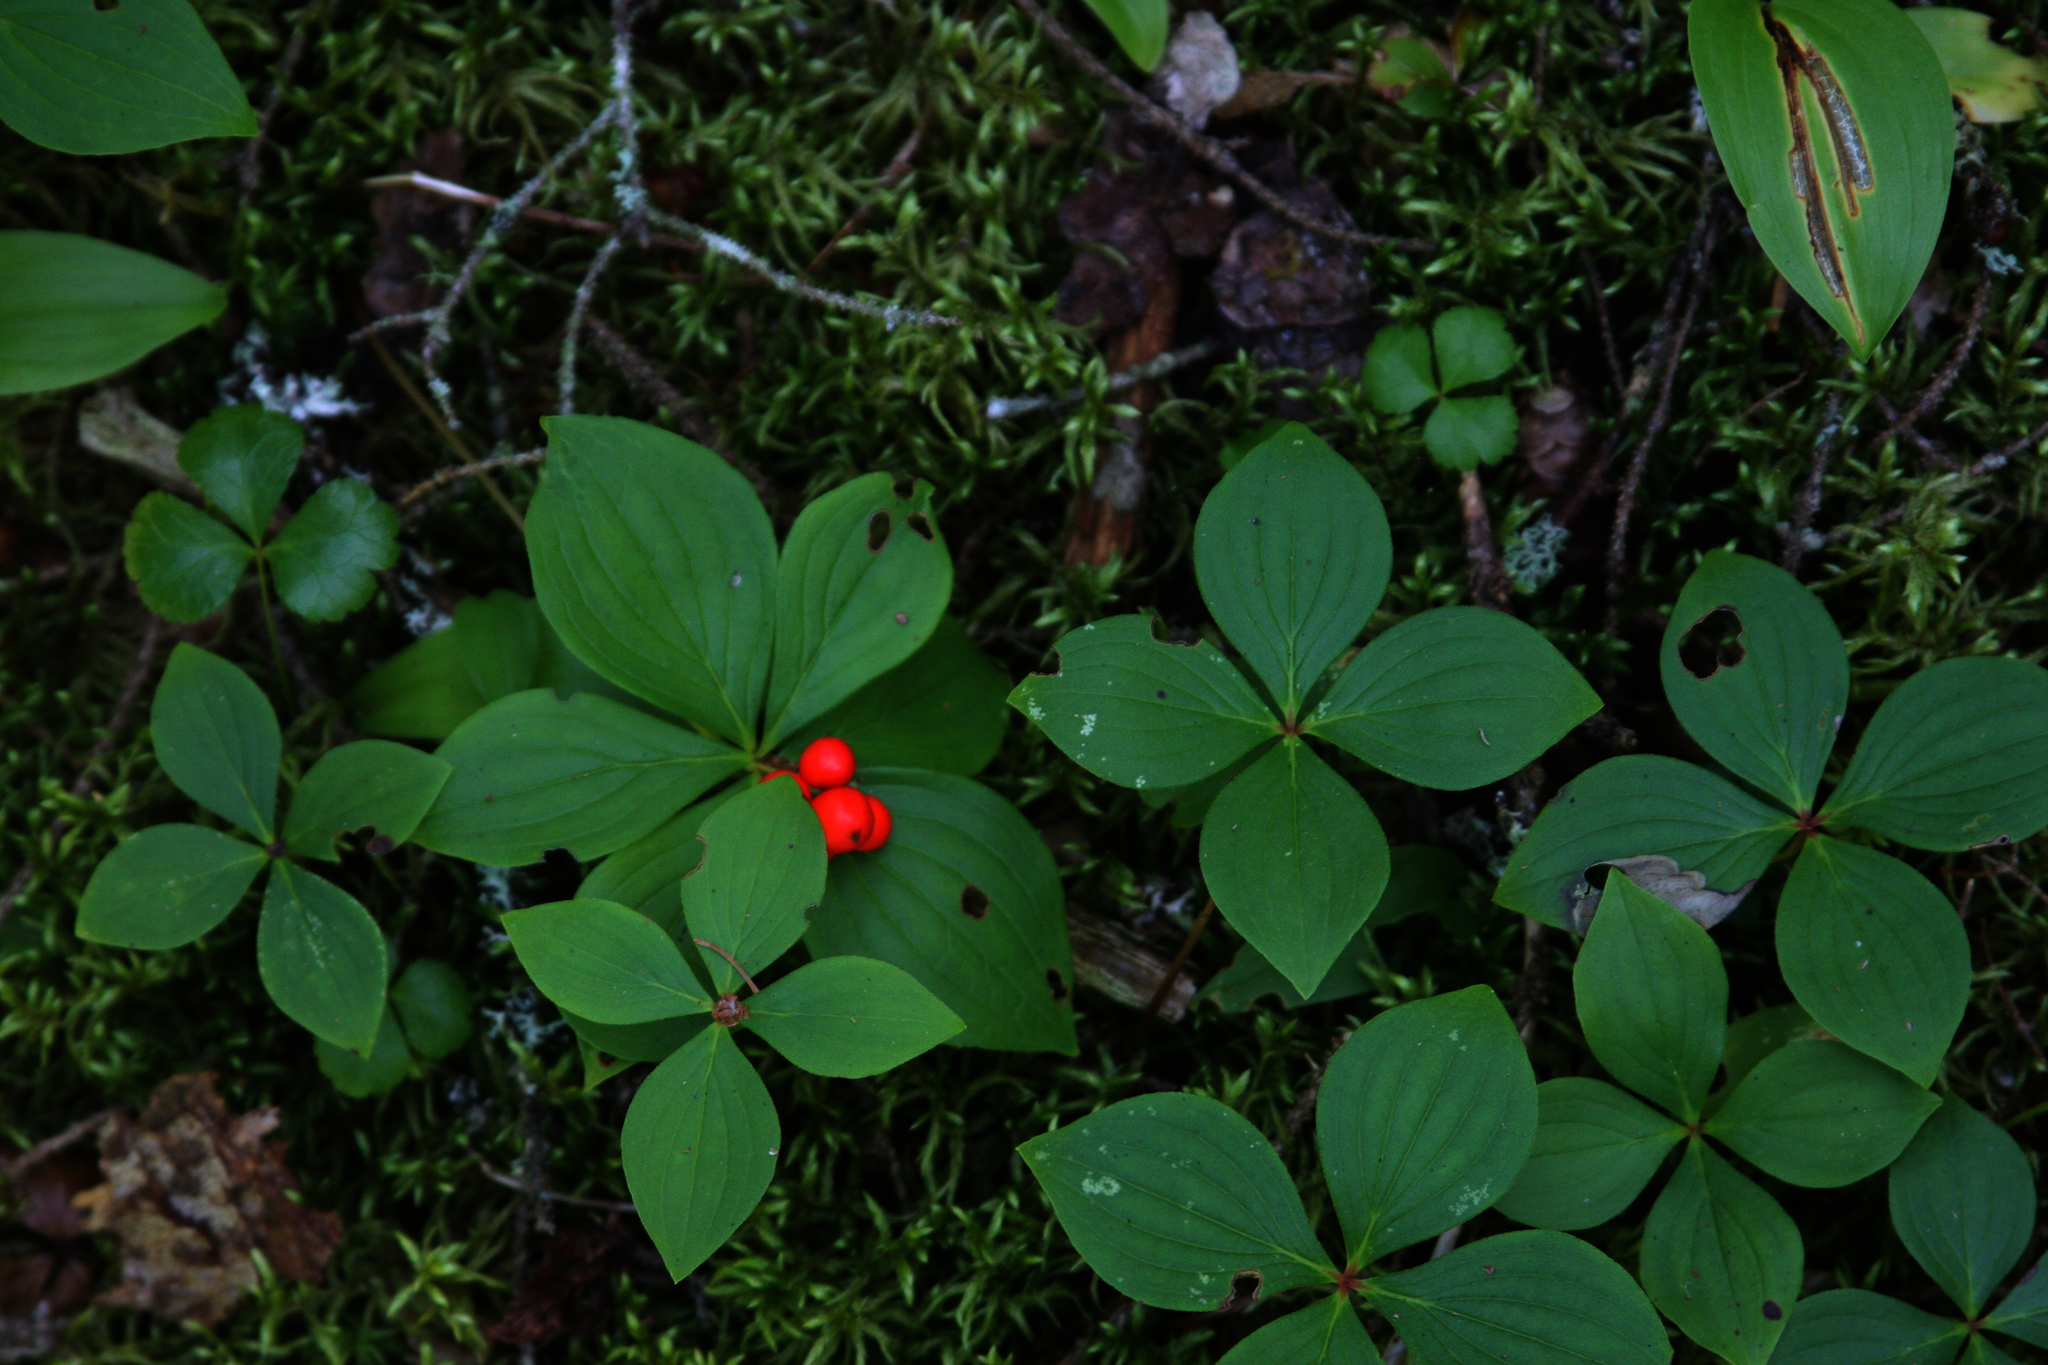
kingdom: Plantae
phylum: Tracheophyta
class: Magnoliopsida
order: Cornales
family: Cornaceae
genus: Cornus
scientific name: Cornus canadensis
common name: Creeping dogwood
